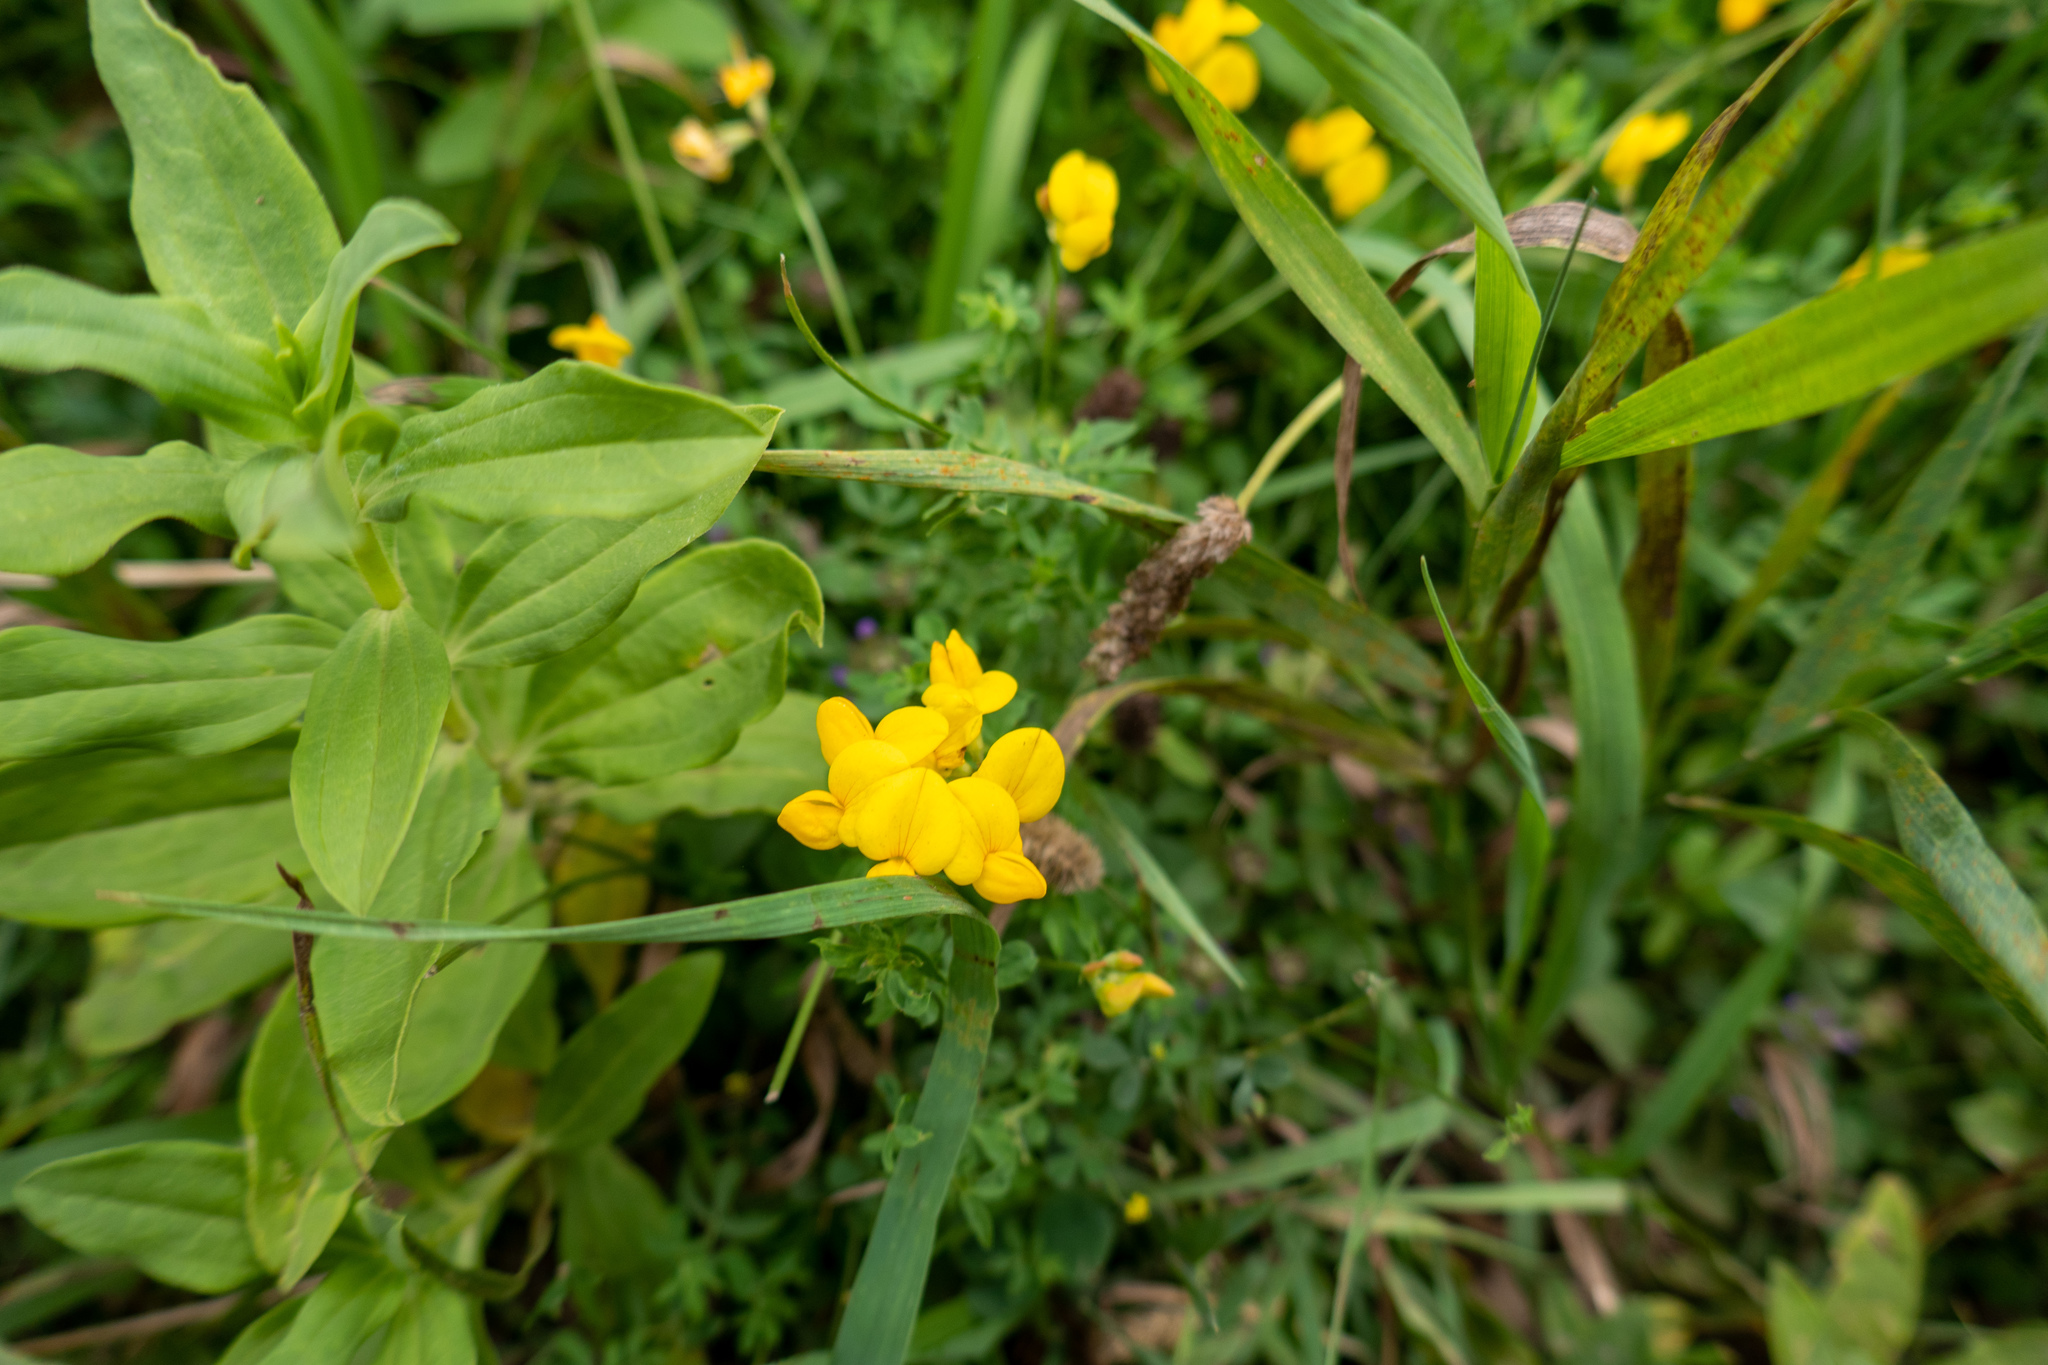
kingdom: Plantae
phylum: Tracheophyta
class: Magnoliopsida
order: Fabales
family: Fabaceae
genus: Lotus
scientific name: Lotus corniculatus
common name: Common bird's-foot-trefoil
